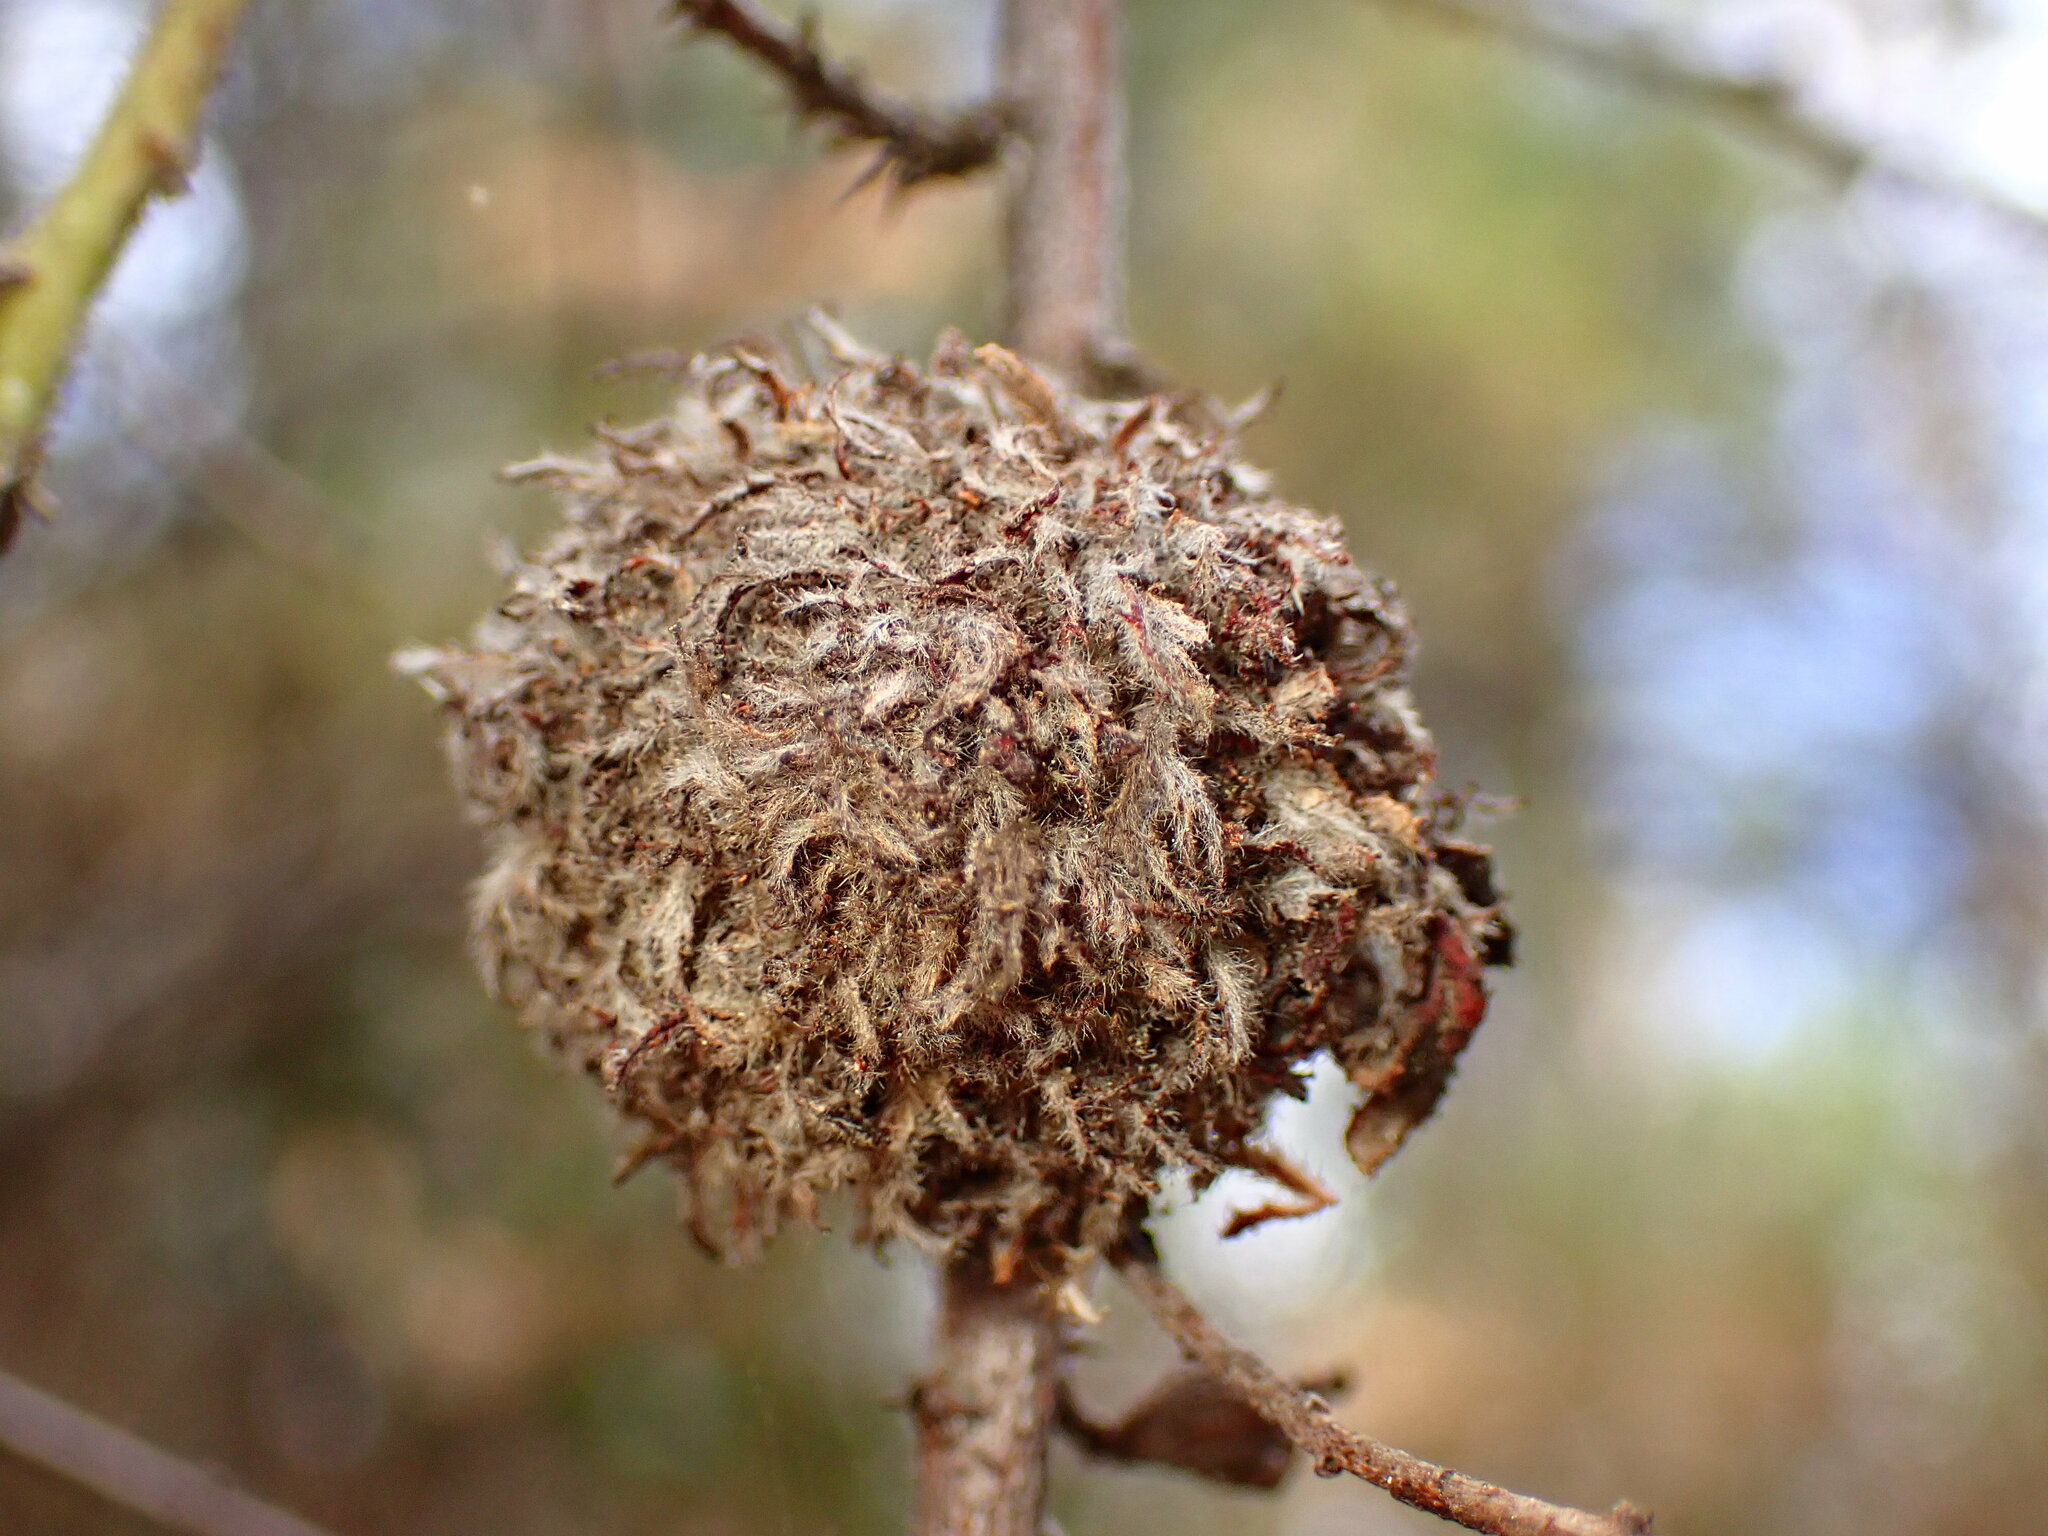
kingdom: Animalia
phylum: Arthropoda
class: Insecta
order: Diptera
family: Cecidomyiidae
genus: Asphondylia
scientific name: Asphondylia ceanothi
